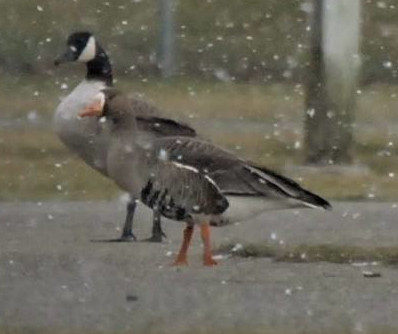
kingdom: Animalia
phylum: Chordata
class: Aves
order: Anseriformes
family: Anatidae
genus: Anser
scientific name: Anser albifrons
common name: Greater white-fronted goose
